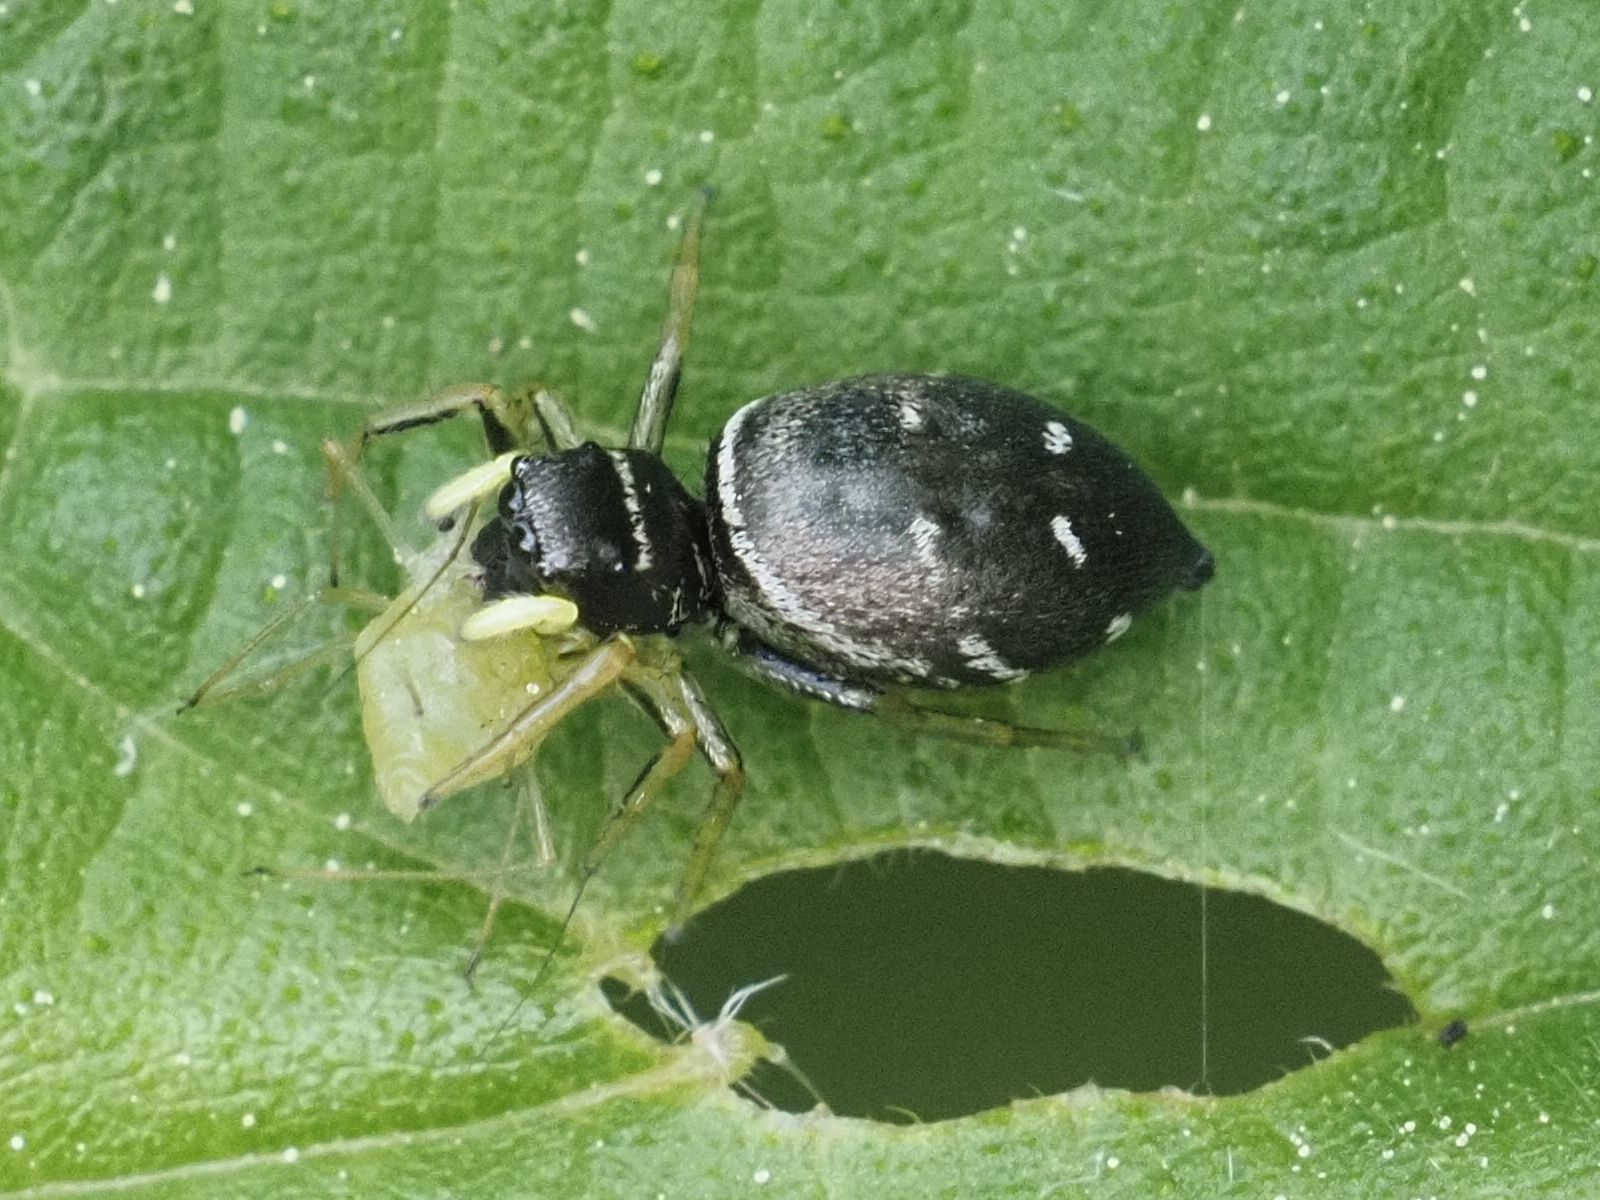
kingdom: Animalia
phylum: Arthropoda
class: Arachnida
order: Araneae
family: Salticidae
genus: Heliophanus
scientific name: Heliophanus cupreus
